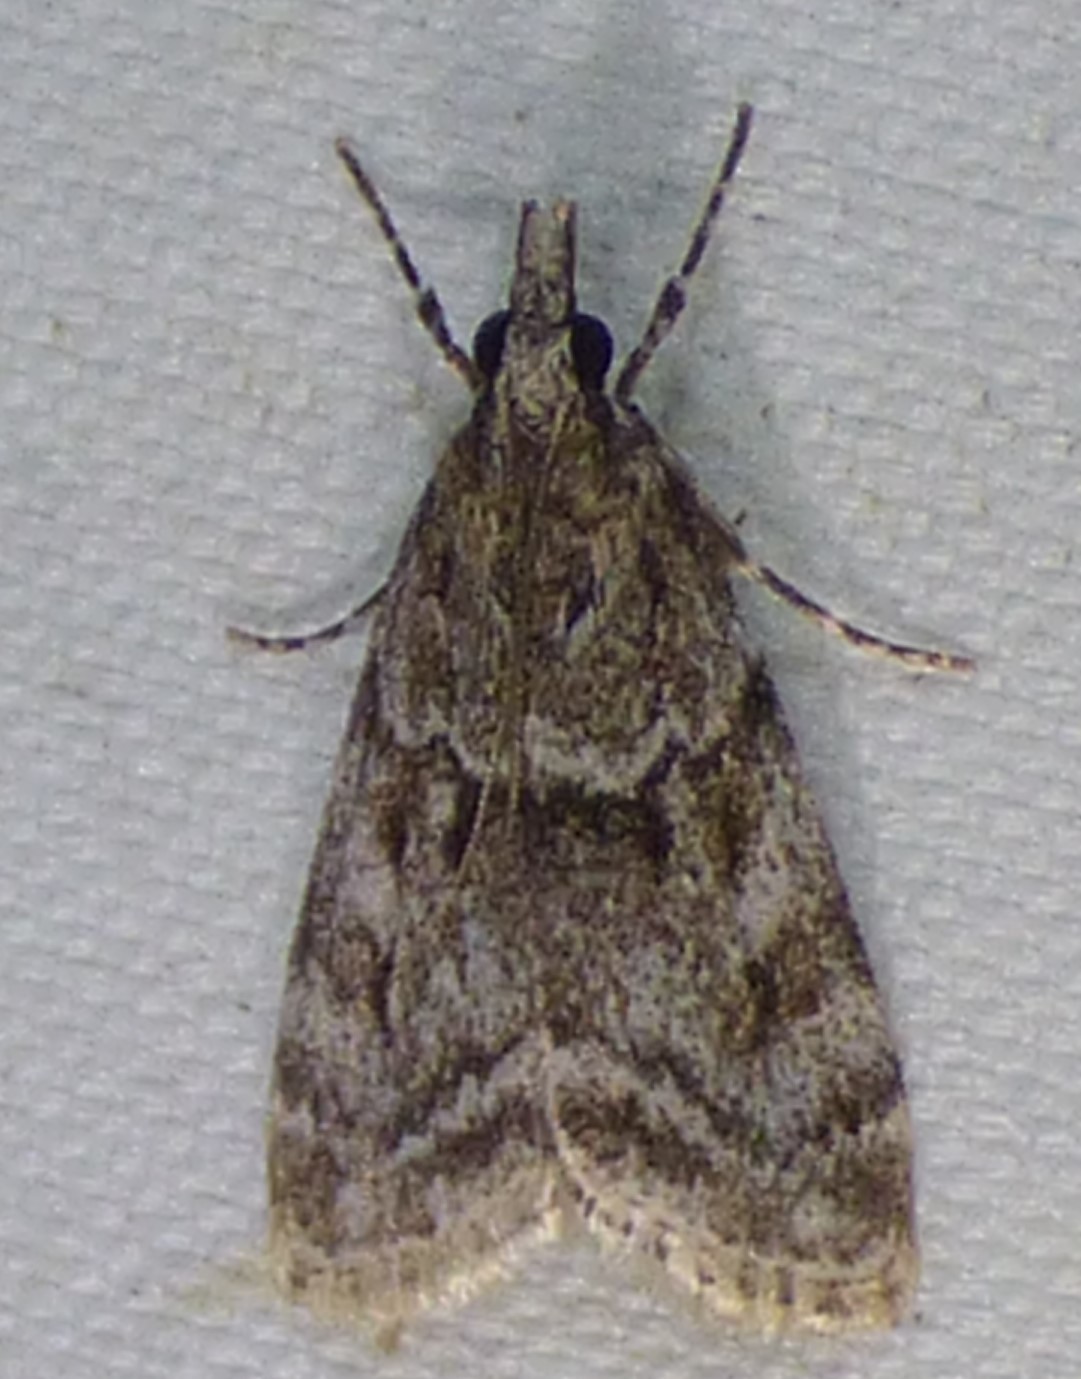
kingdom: Animalia
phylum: Arthropoda
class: Insecta
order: Lepidoptera
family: Crambidae
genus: Eudonia
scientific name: Eudonia heterosalis
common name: Mcdunnough's eudonia
